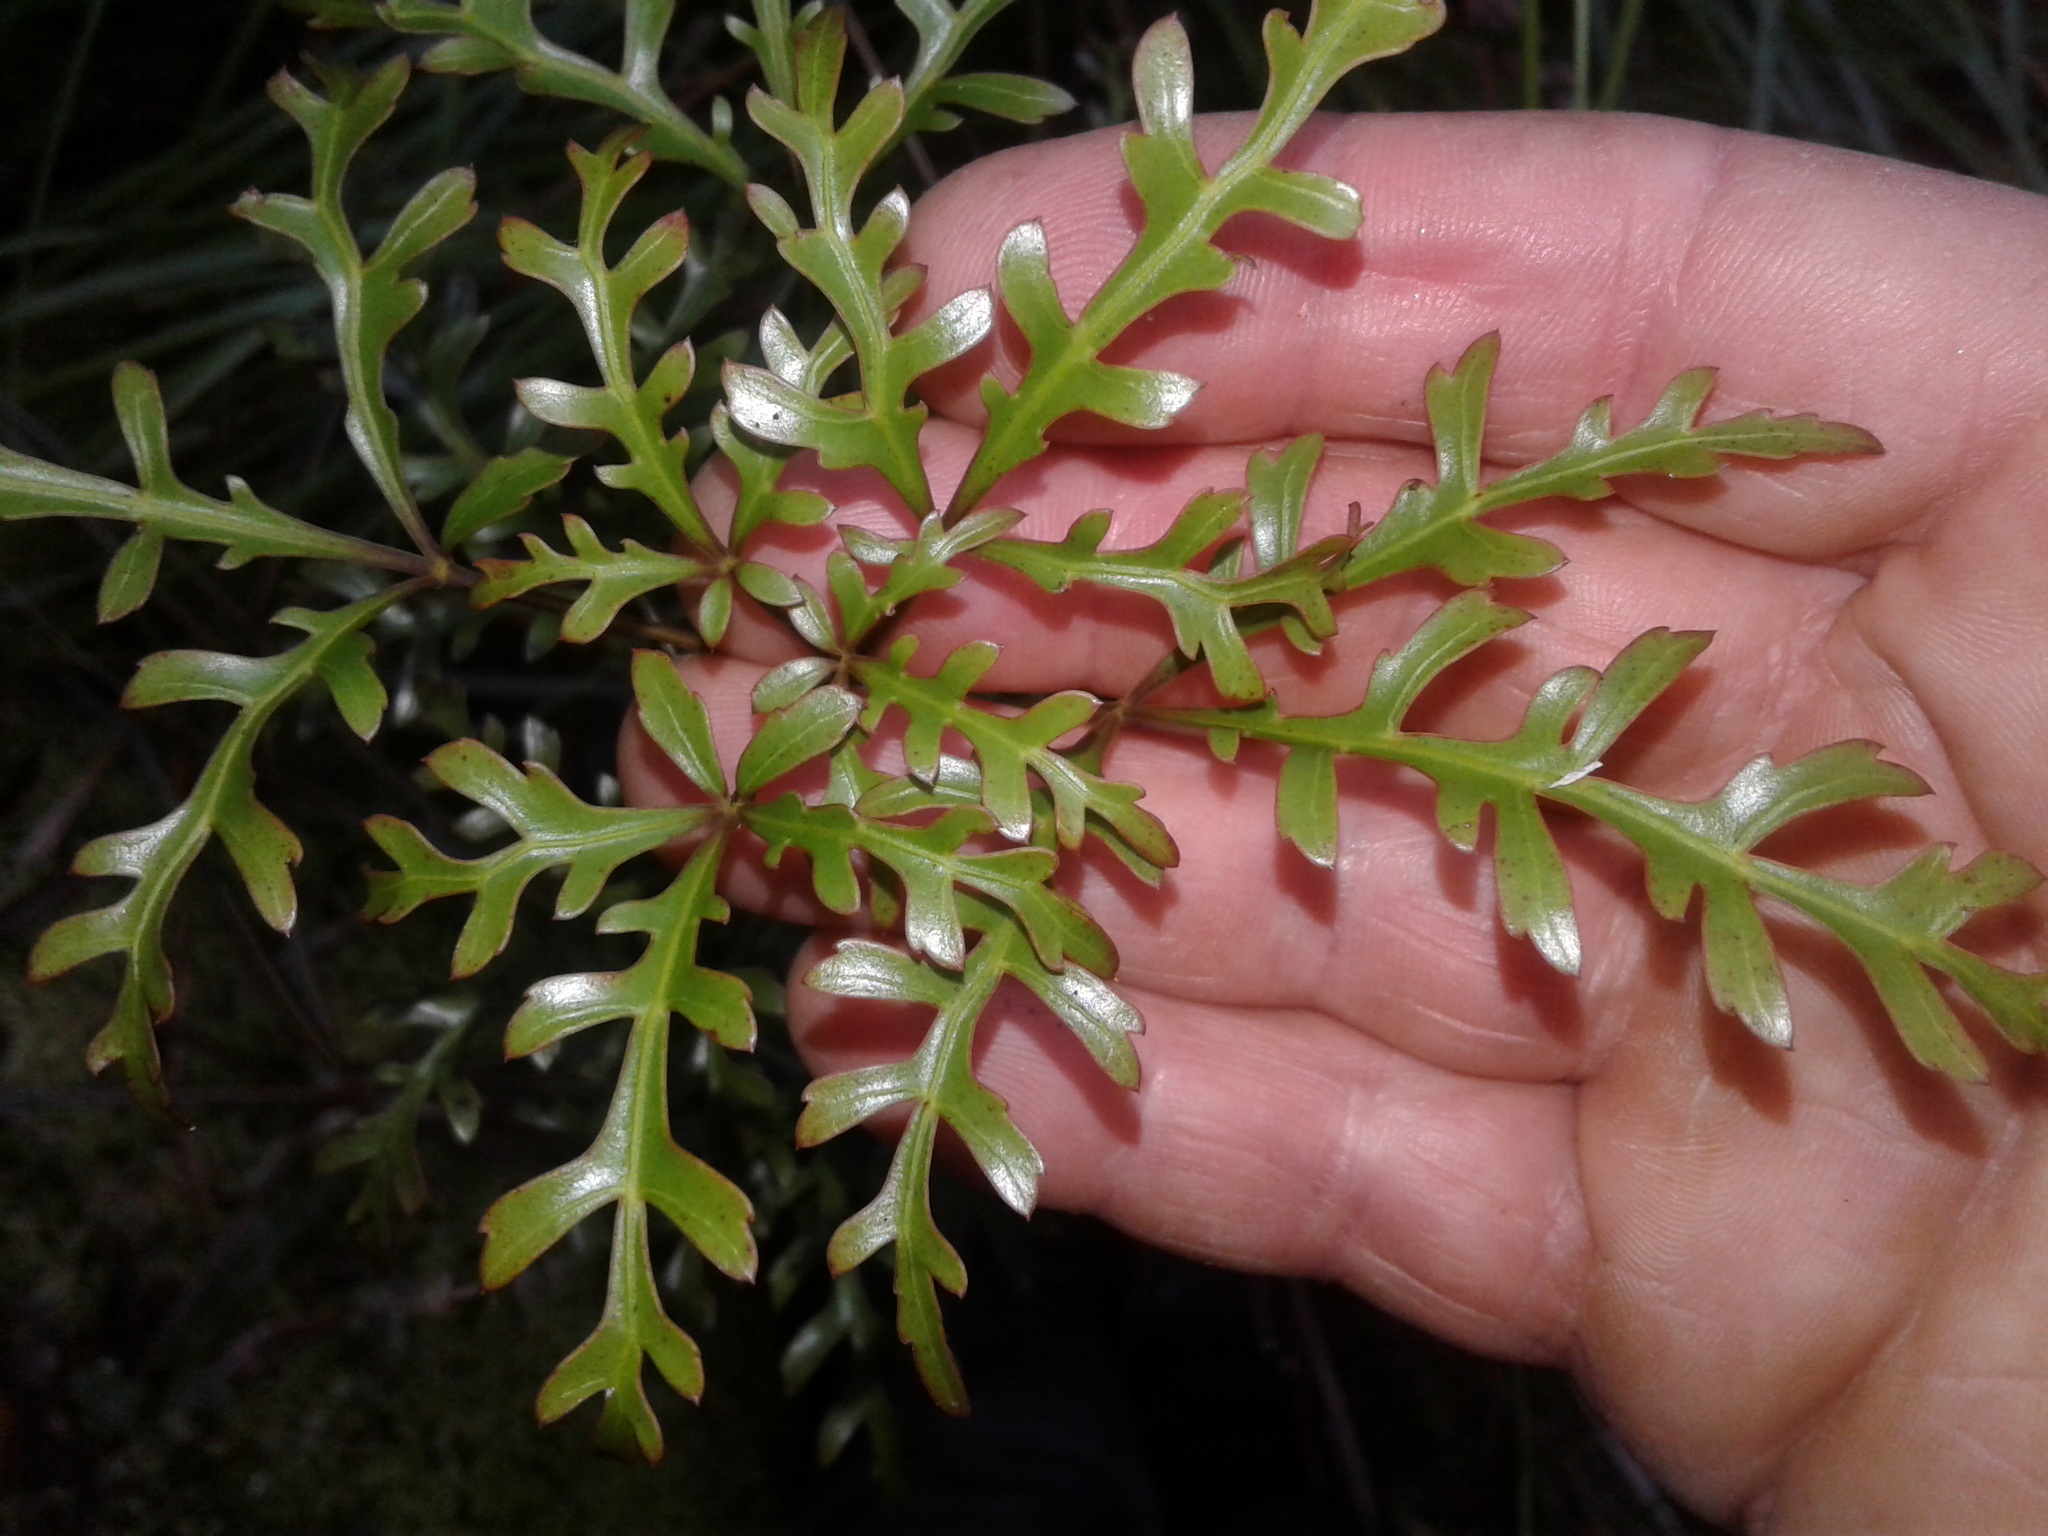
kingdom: Plantae
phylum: Tracheophyta
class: Magnoliopsida
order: Apiales
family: Araliaceae
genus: Raukaua
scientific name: Raukaua simplex
